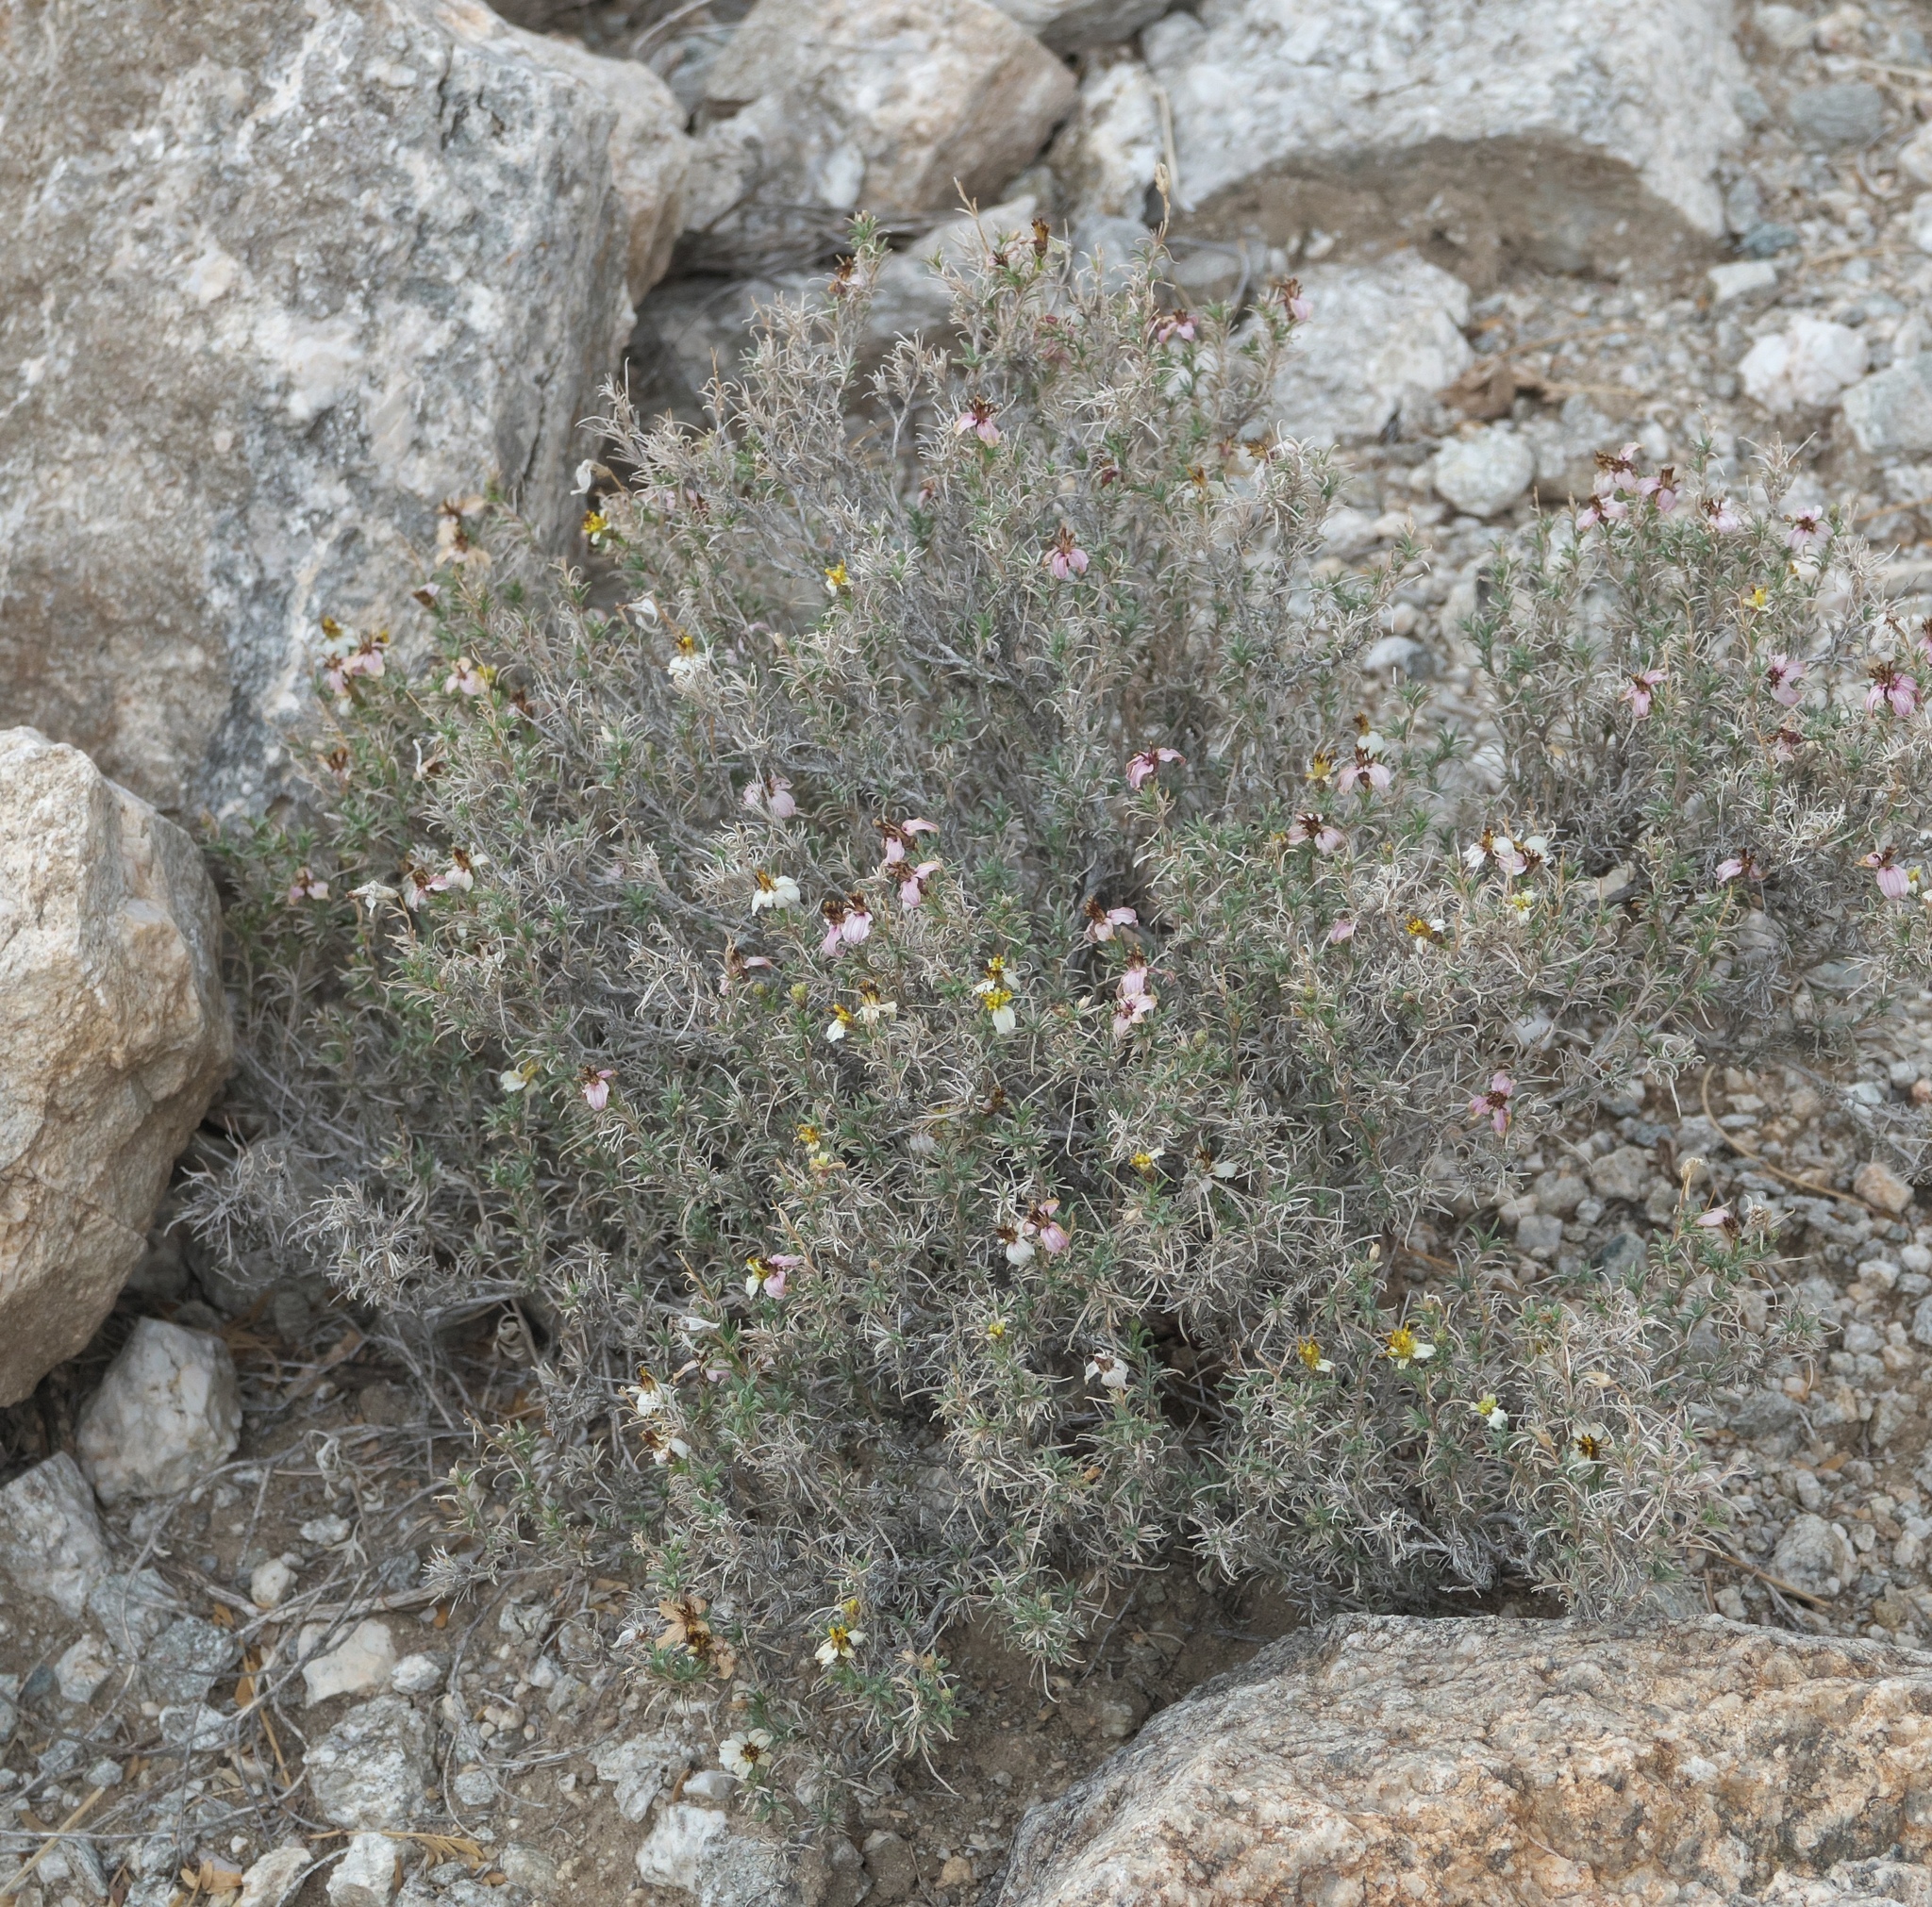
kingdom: Plantae
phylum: Tracheophyta
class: Magnoliopsida
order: Asterales
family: Asteraceae
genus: Zinnia
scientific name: Zinnia acerosa
